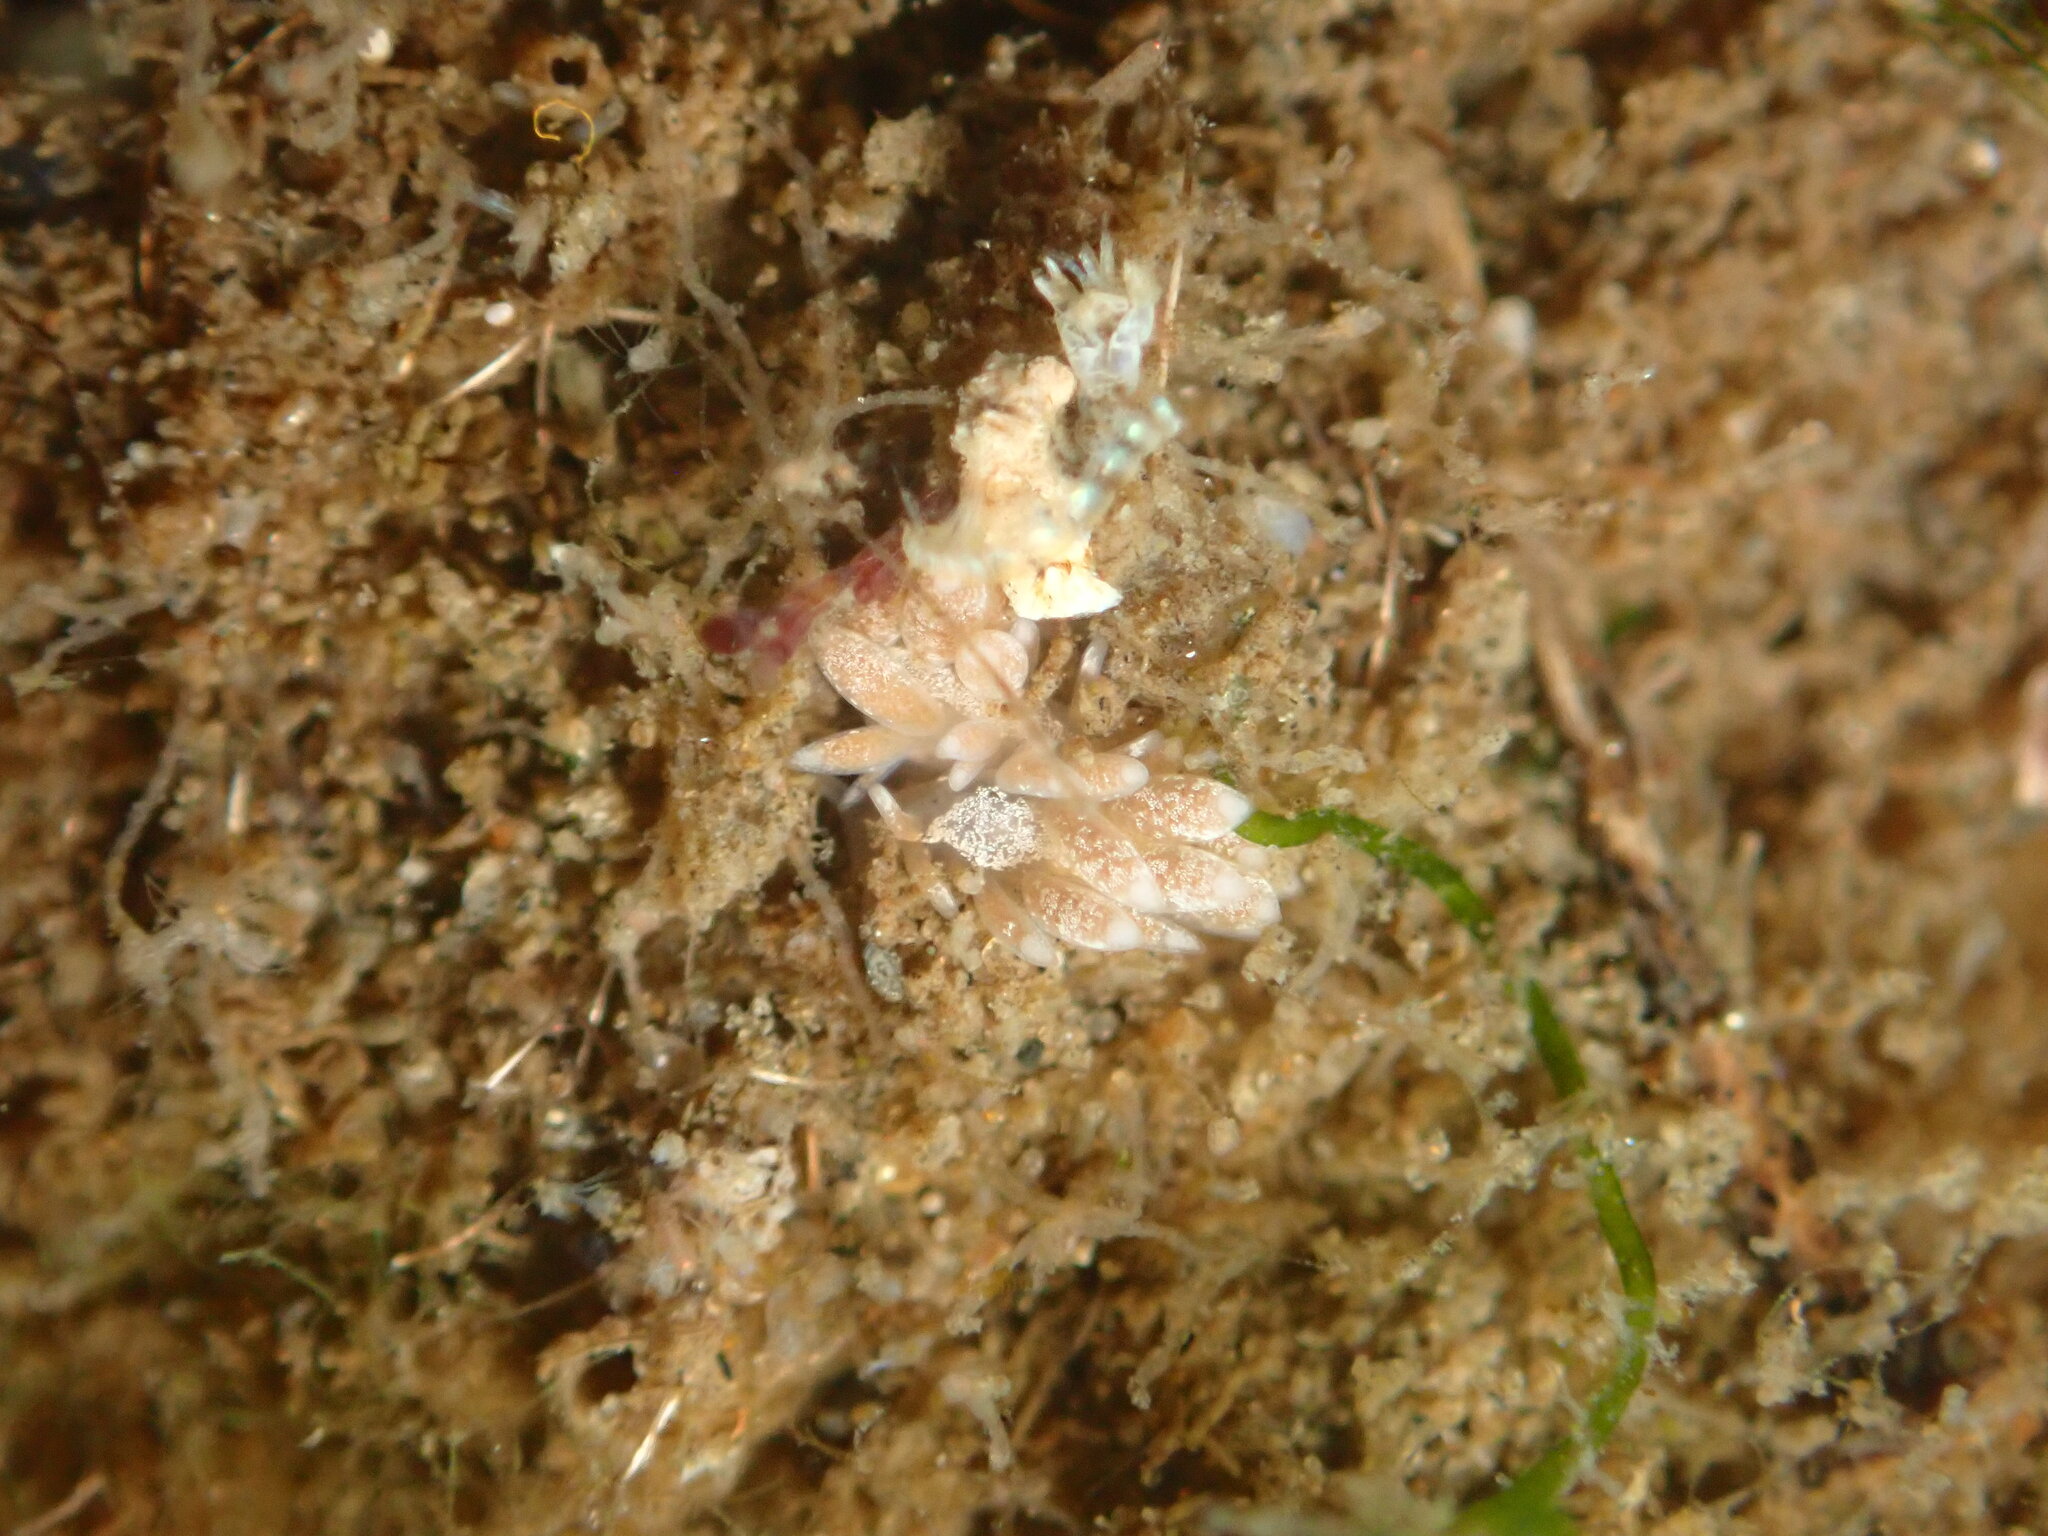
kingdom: Animalia
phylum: Mollusca
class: Gastropoda
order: Nudibranchia
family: Trinchesiidae
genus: Trinchesia
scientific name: Trinchesia albocrusta
